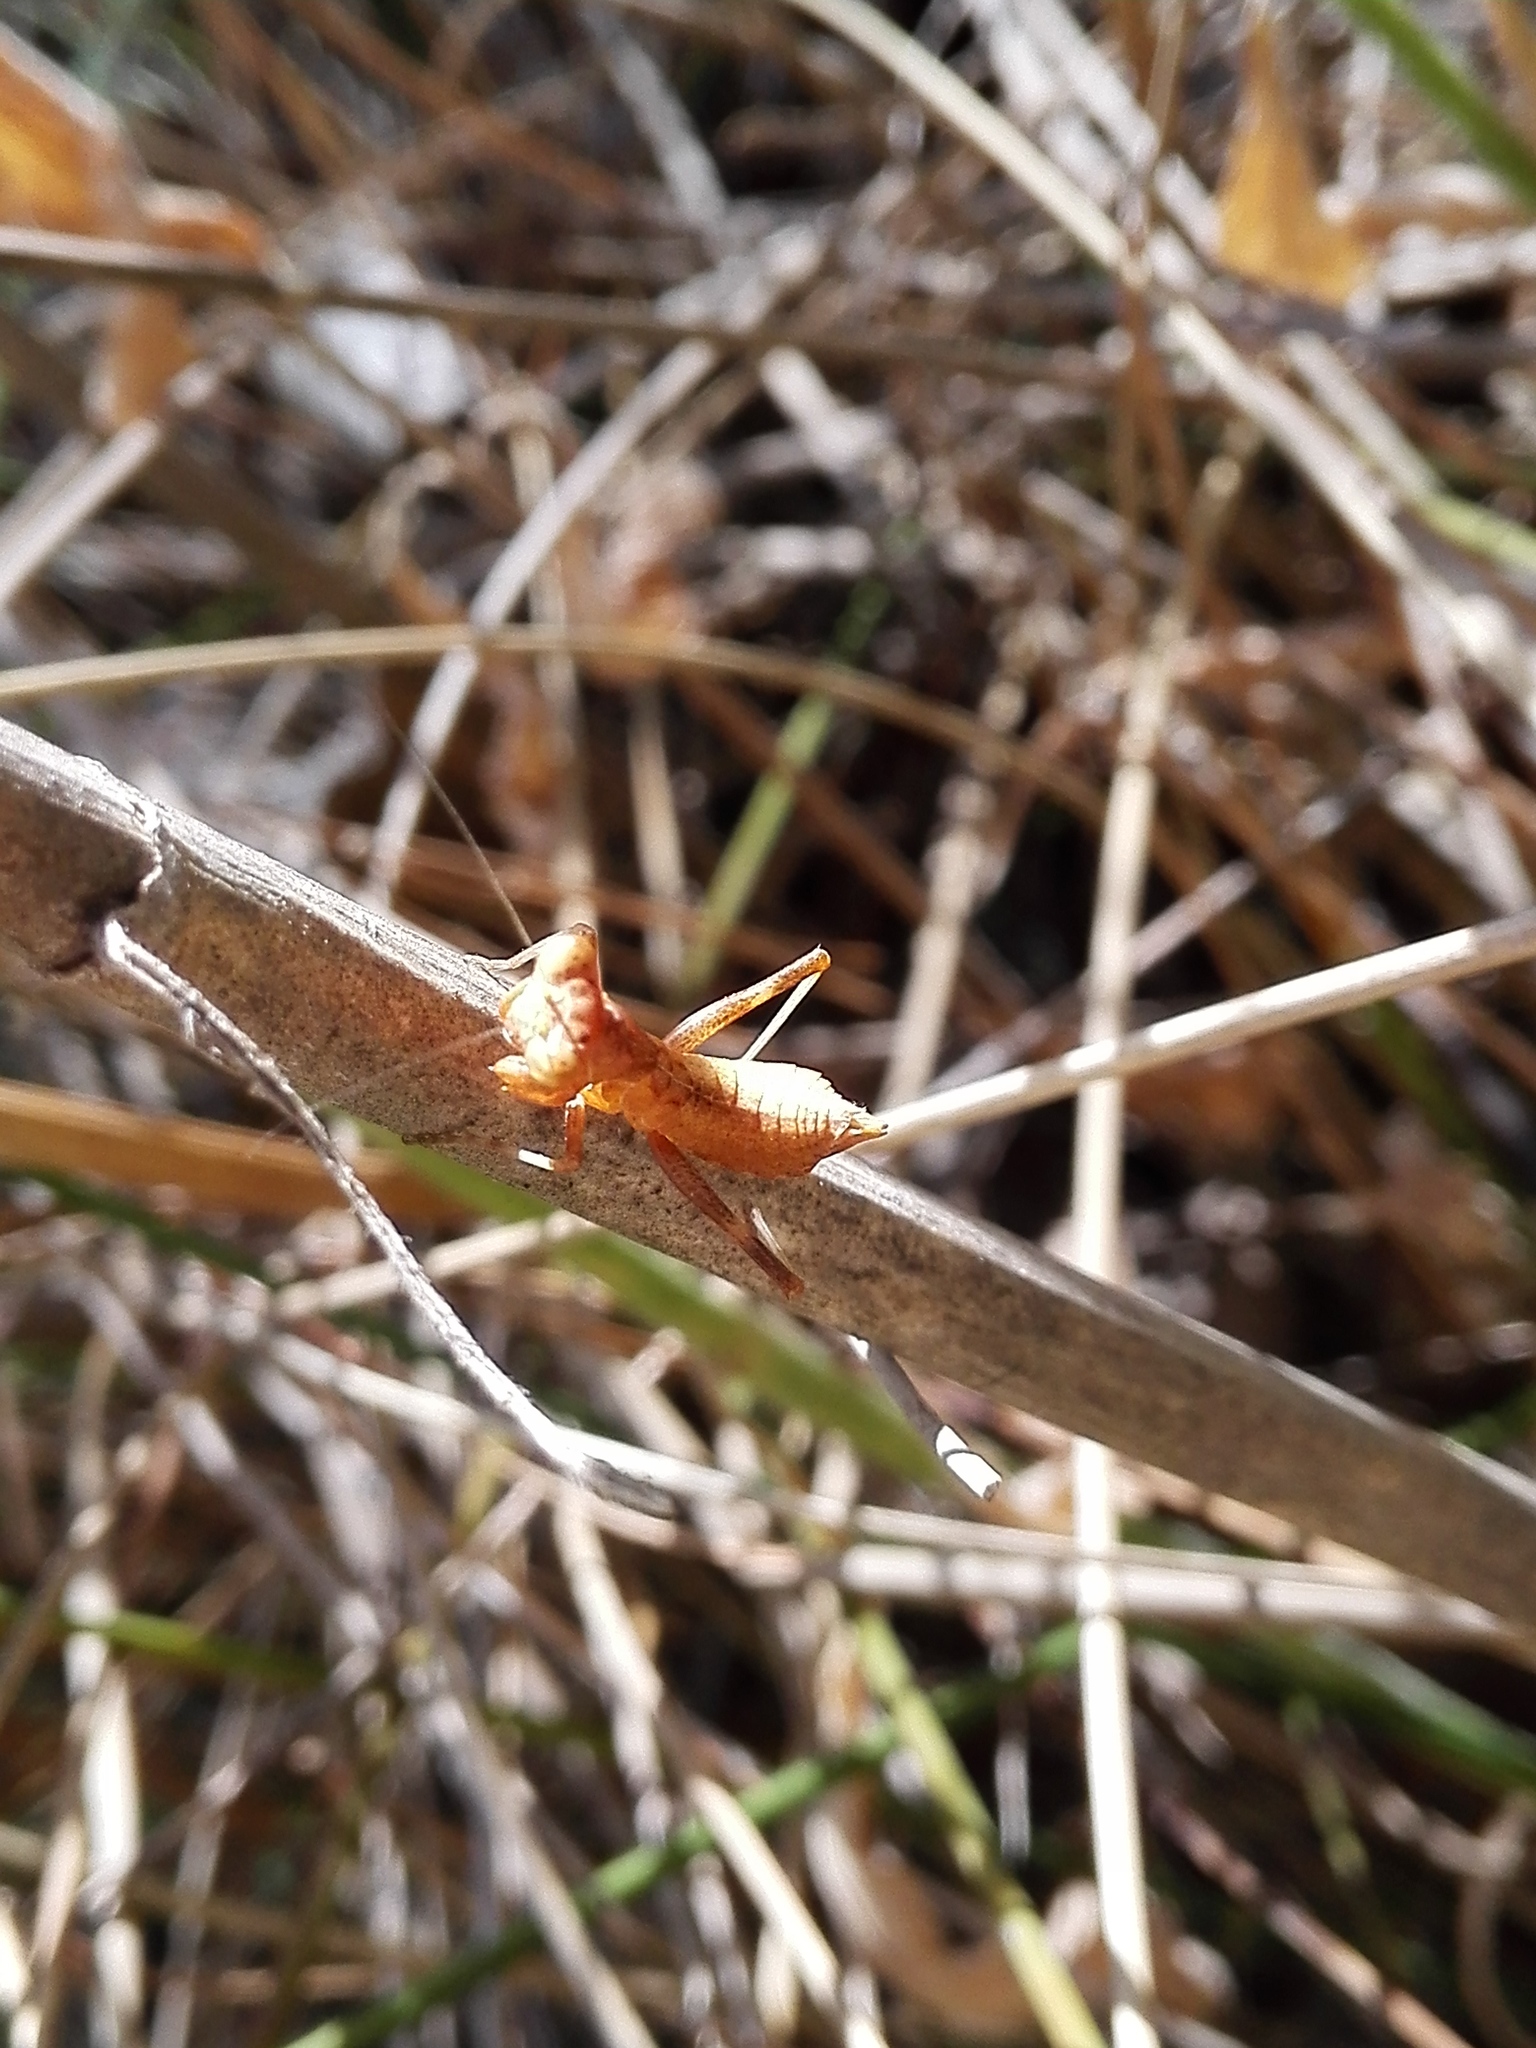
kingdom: Animalia
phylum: Arthropoda
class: Insecta
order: Mantodea
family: Amelidae
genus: Ameles
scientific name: Ameles spallanzania
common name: European dwarf mantis
